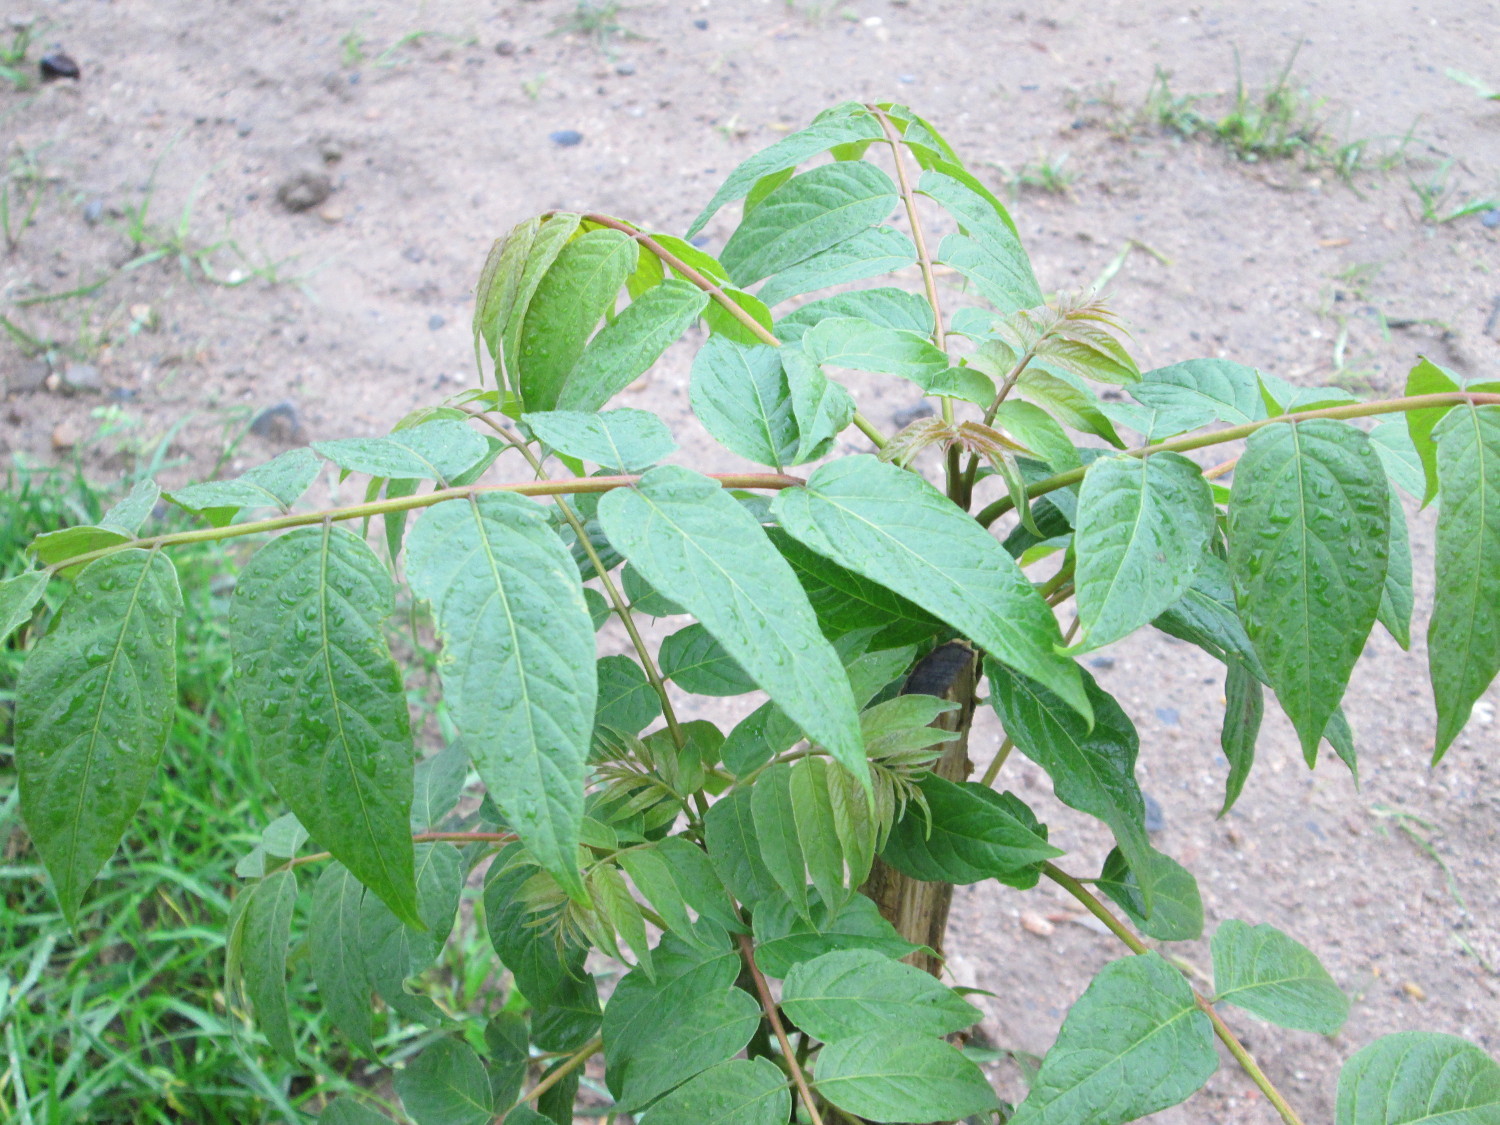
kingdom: Plantae
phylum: Tracheophyta
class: Magnoliopsida
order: Sapindales
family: Simaroubaceae
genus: Ailanthus
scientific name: Ailanthus altissima
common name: Tree-of-heaven
